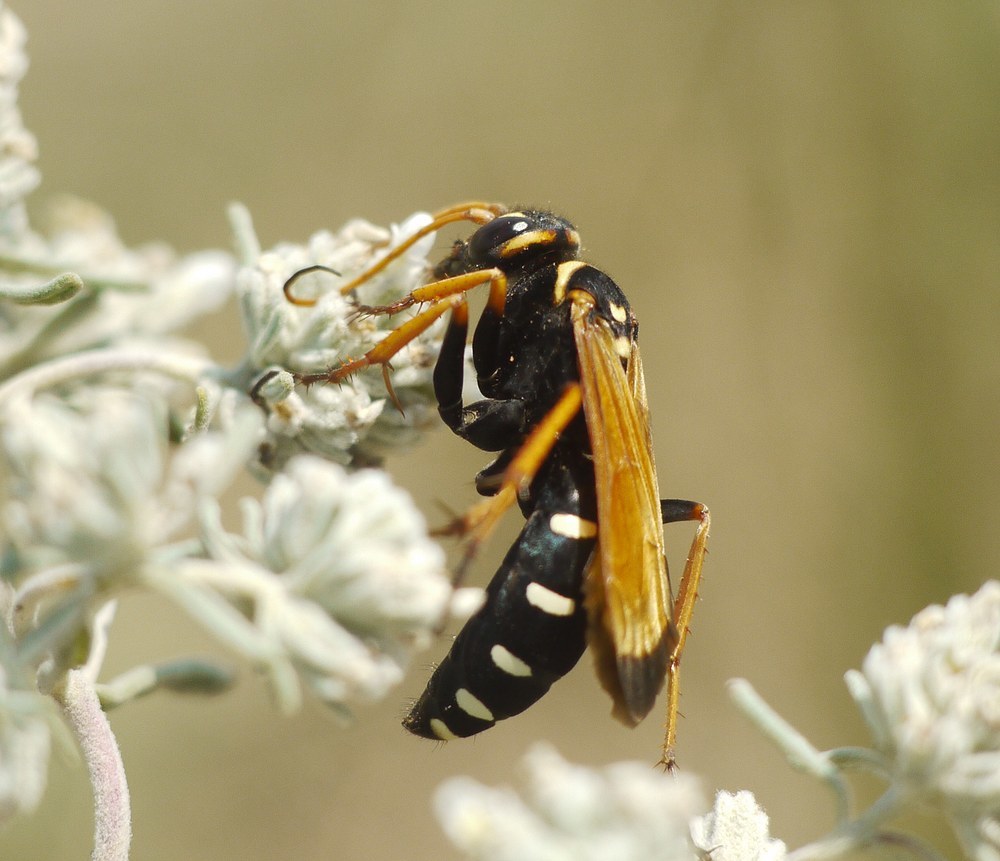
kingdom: Animalia
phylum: Arthropoda
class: Insecta
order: Hymenoptera
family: Pompilidae
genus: Parabatozonus
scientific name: Parabatozonus lacerticida
